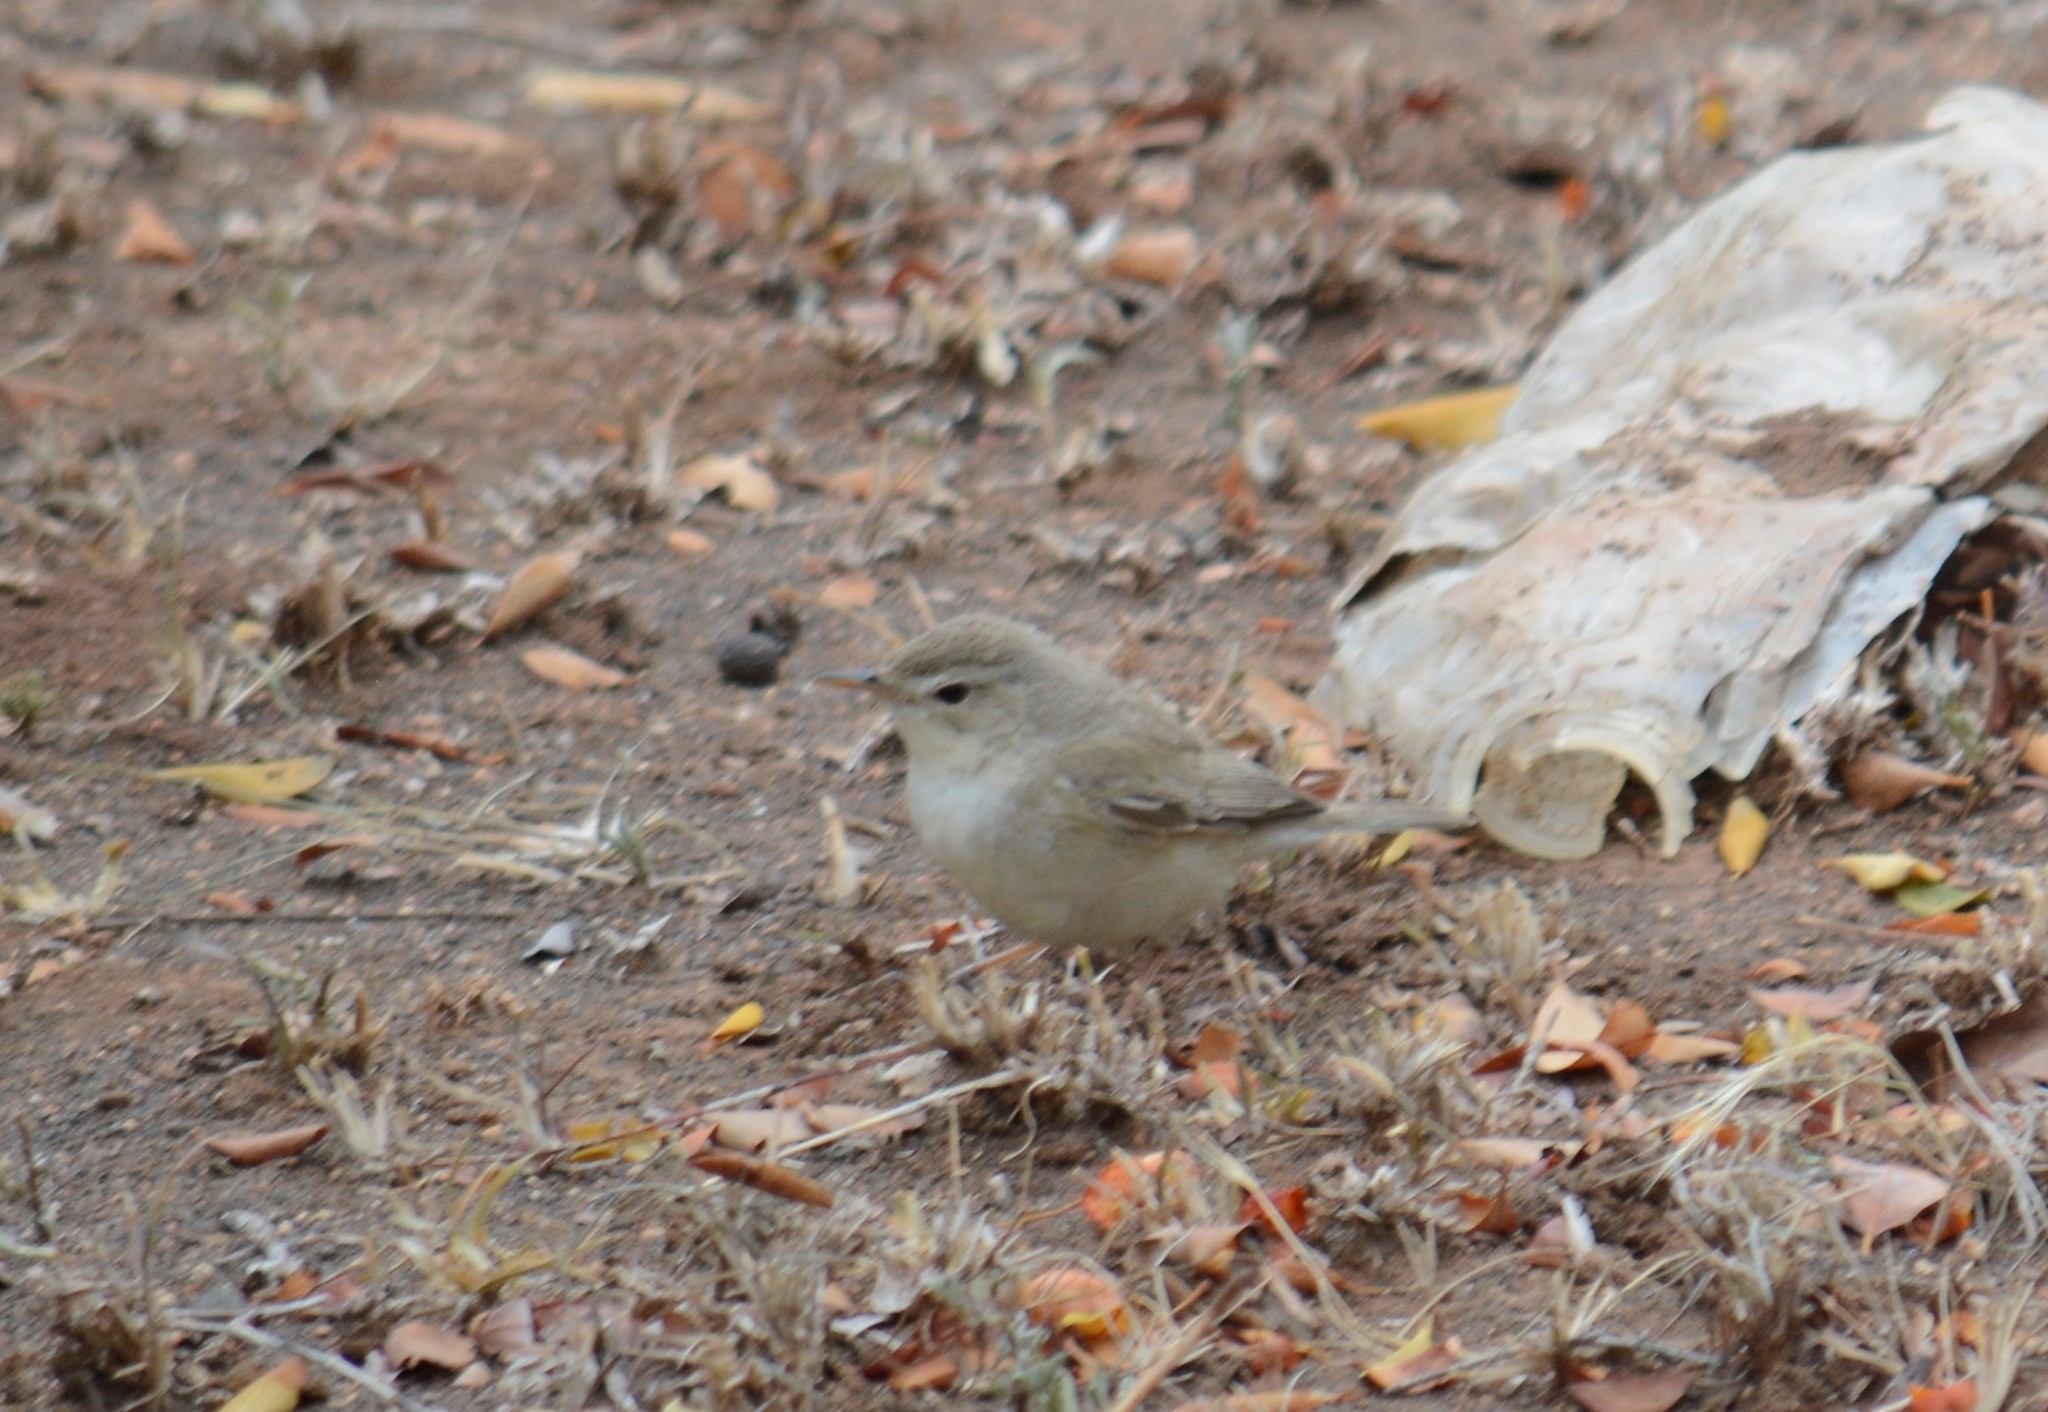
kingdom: Animalia
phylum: Chordata
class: Aves
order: Passeriformes
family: Acrocephalidae
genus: Iduna
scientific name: Iduna caligata
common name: Booted warbler
